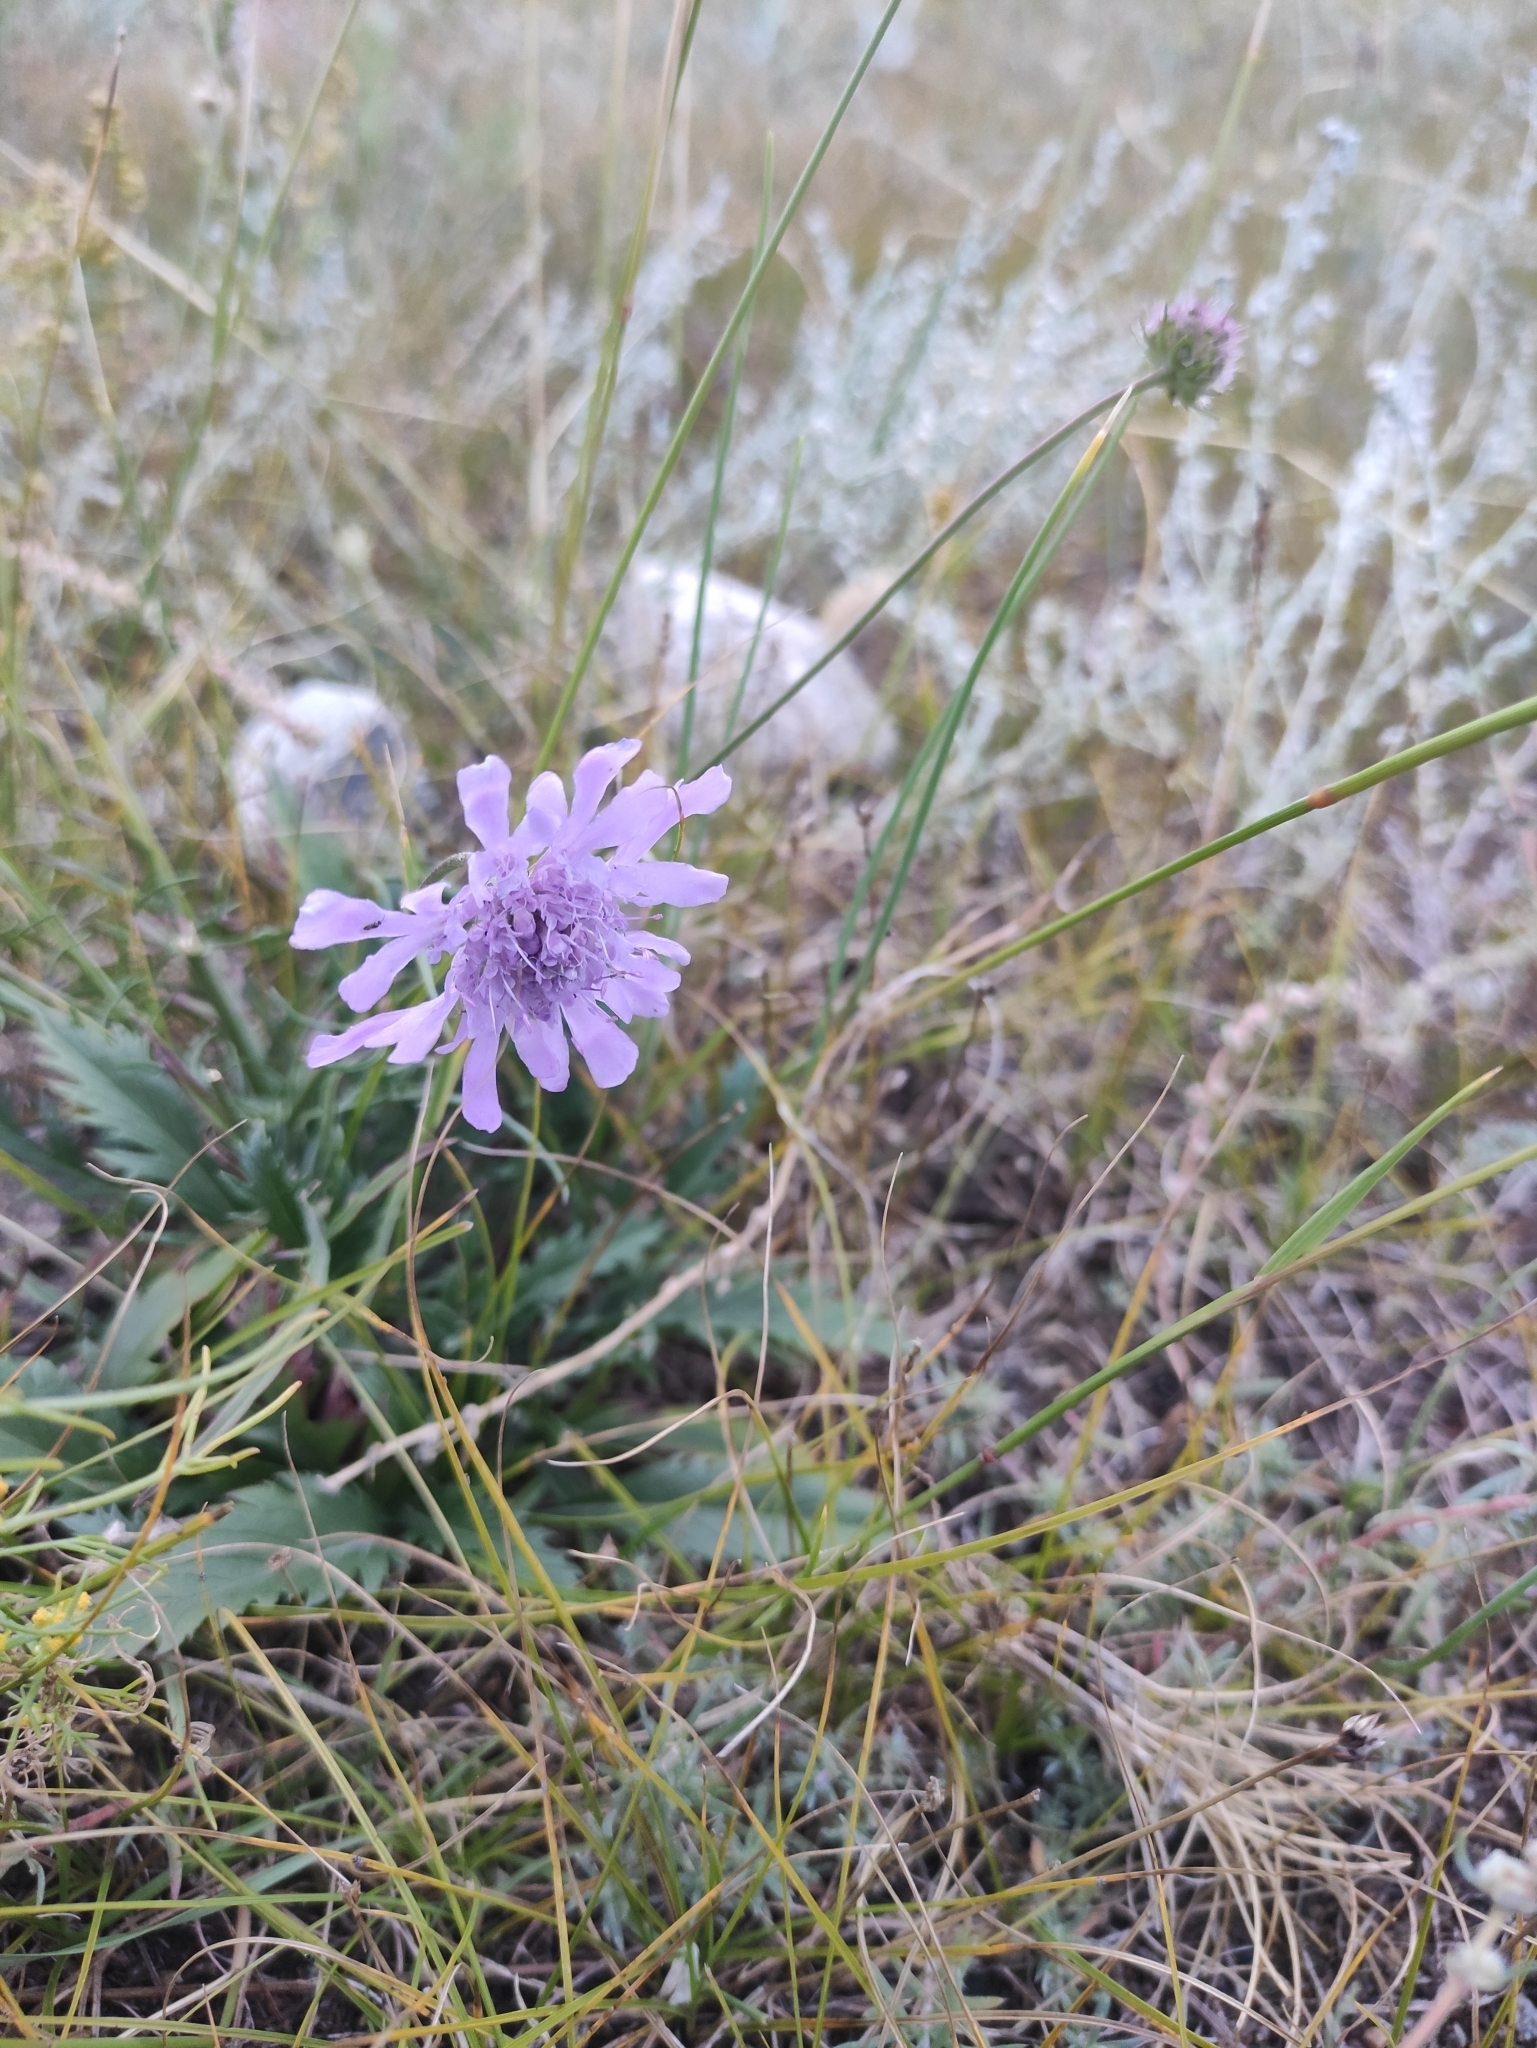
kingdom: Plantae
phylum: Tracheophyta
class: Magnoliopsida
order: Dipsacales
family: Caprifoliaceae
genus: Scabiosa
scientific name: Scabiosa comosa
